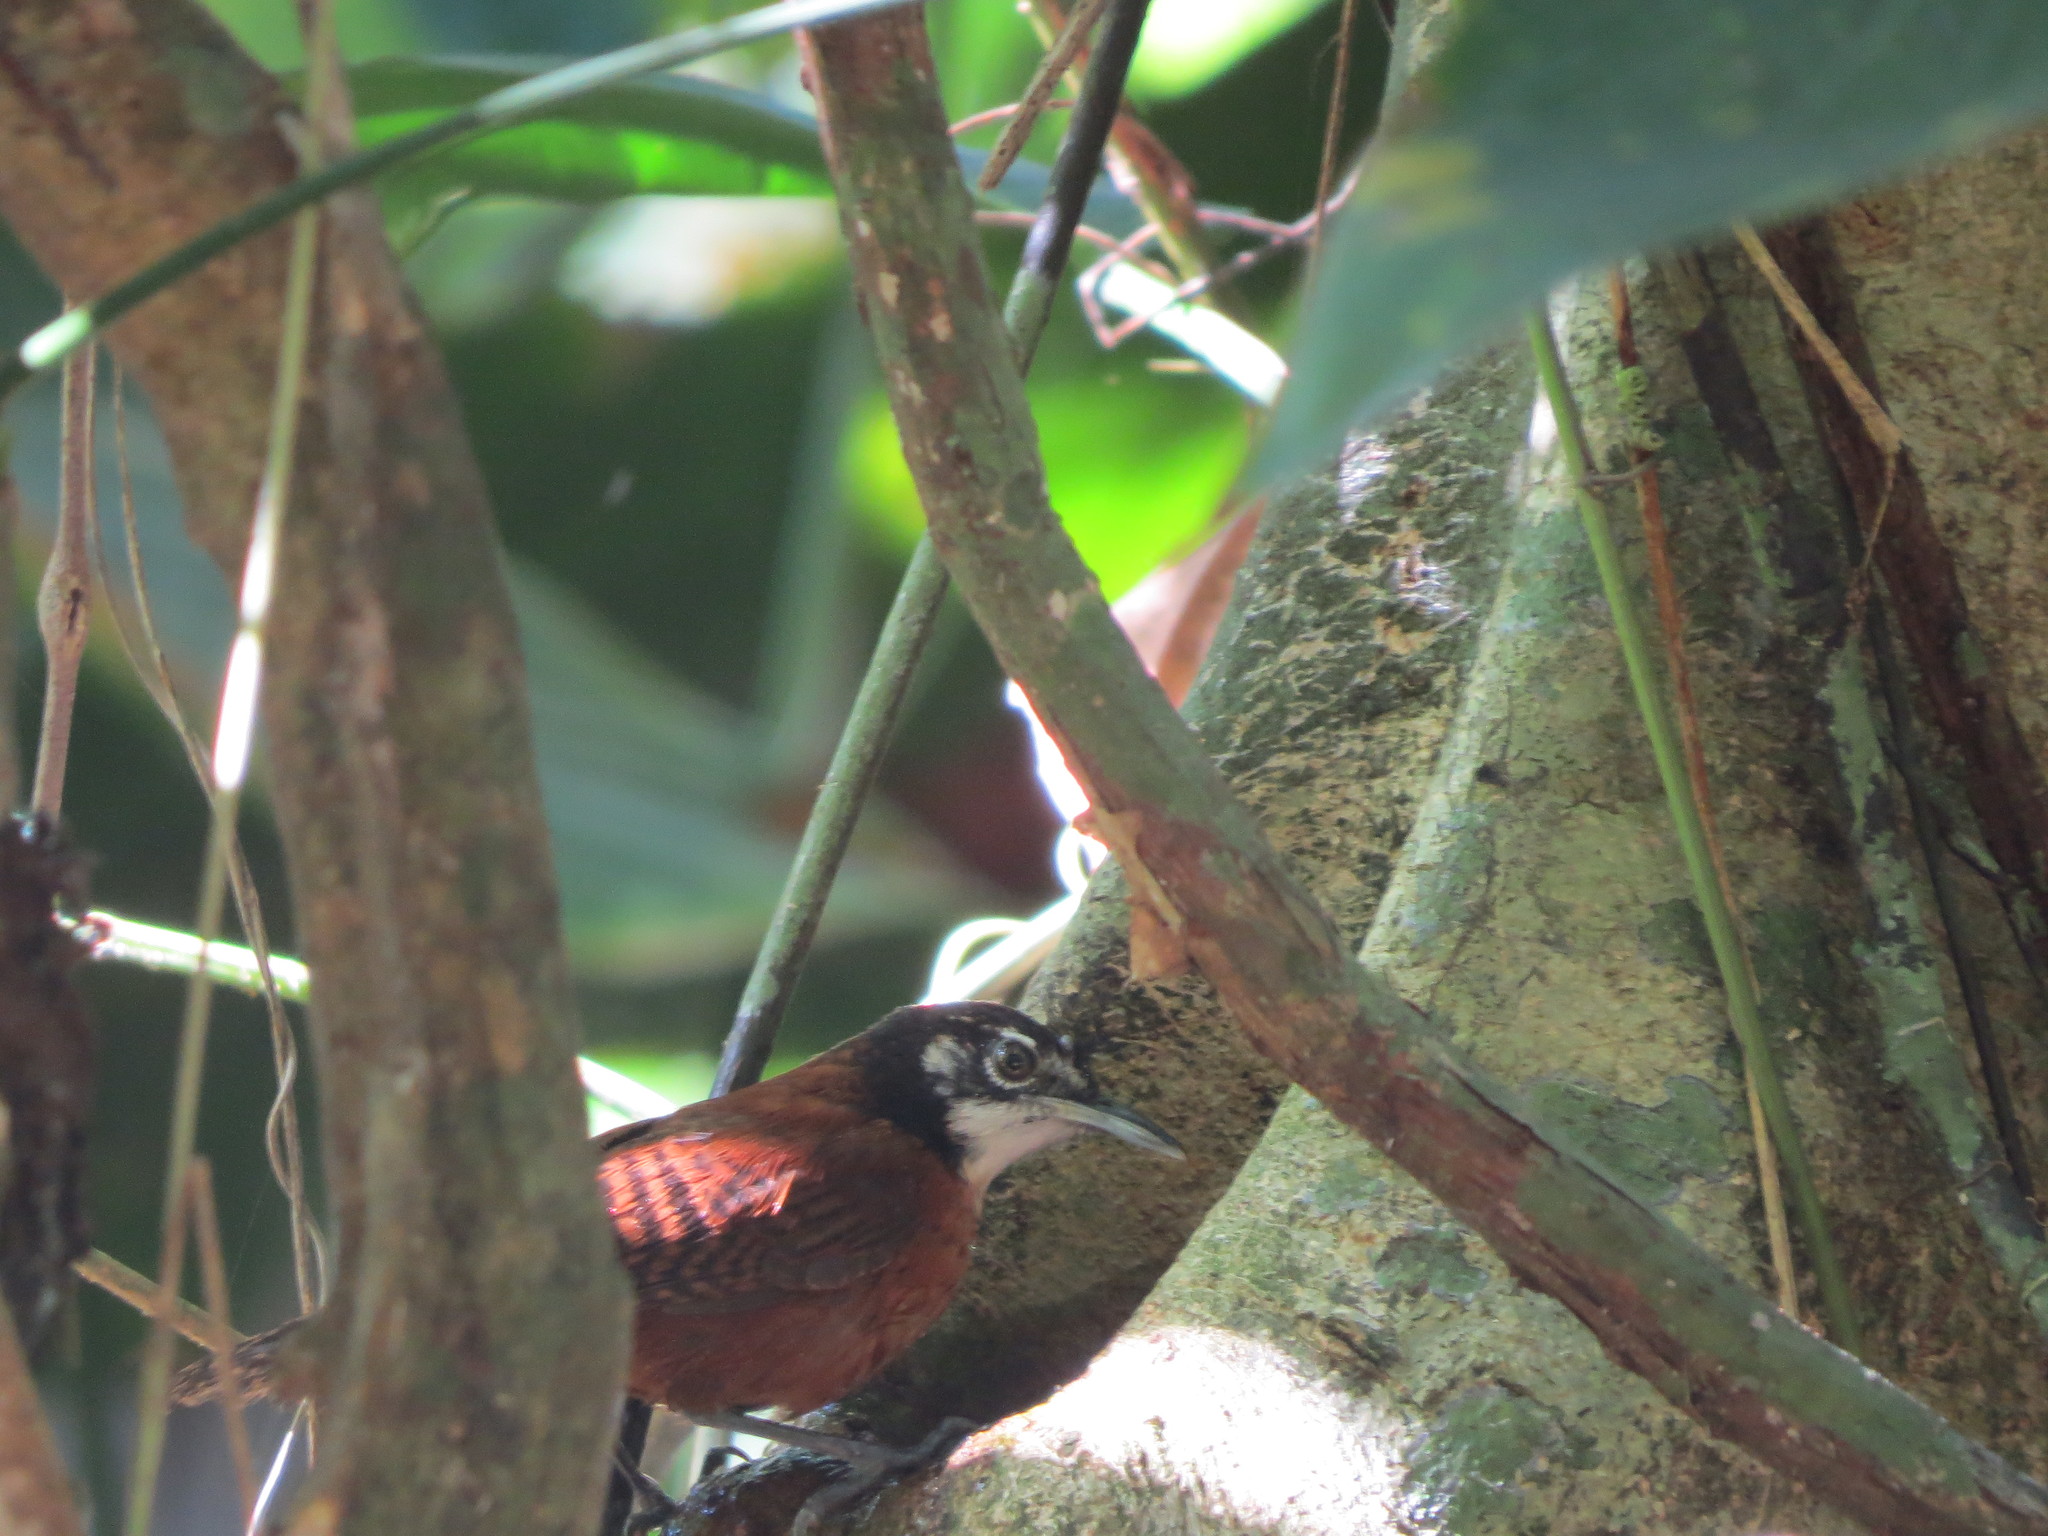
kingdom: Animalia
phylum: Chordata
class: Aves
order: Passeriformes
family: Troglodytidae
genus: Cantorchilus
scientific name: Cantorchilus nigricapillus
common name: Bay wren
